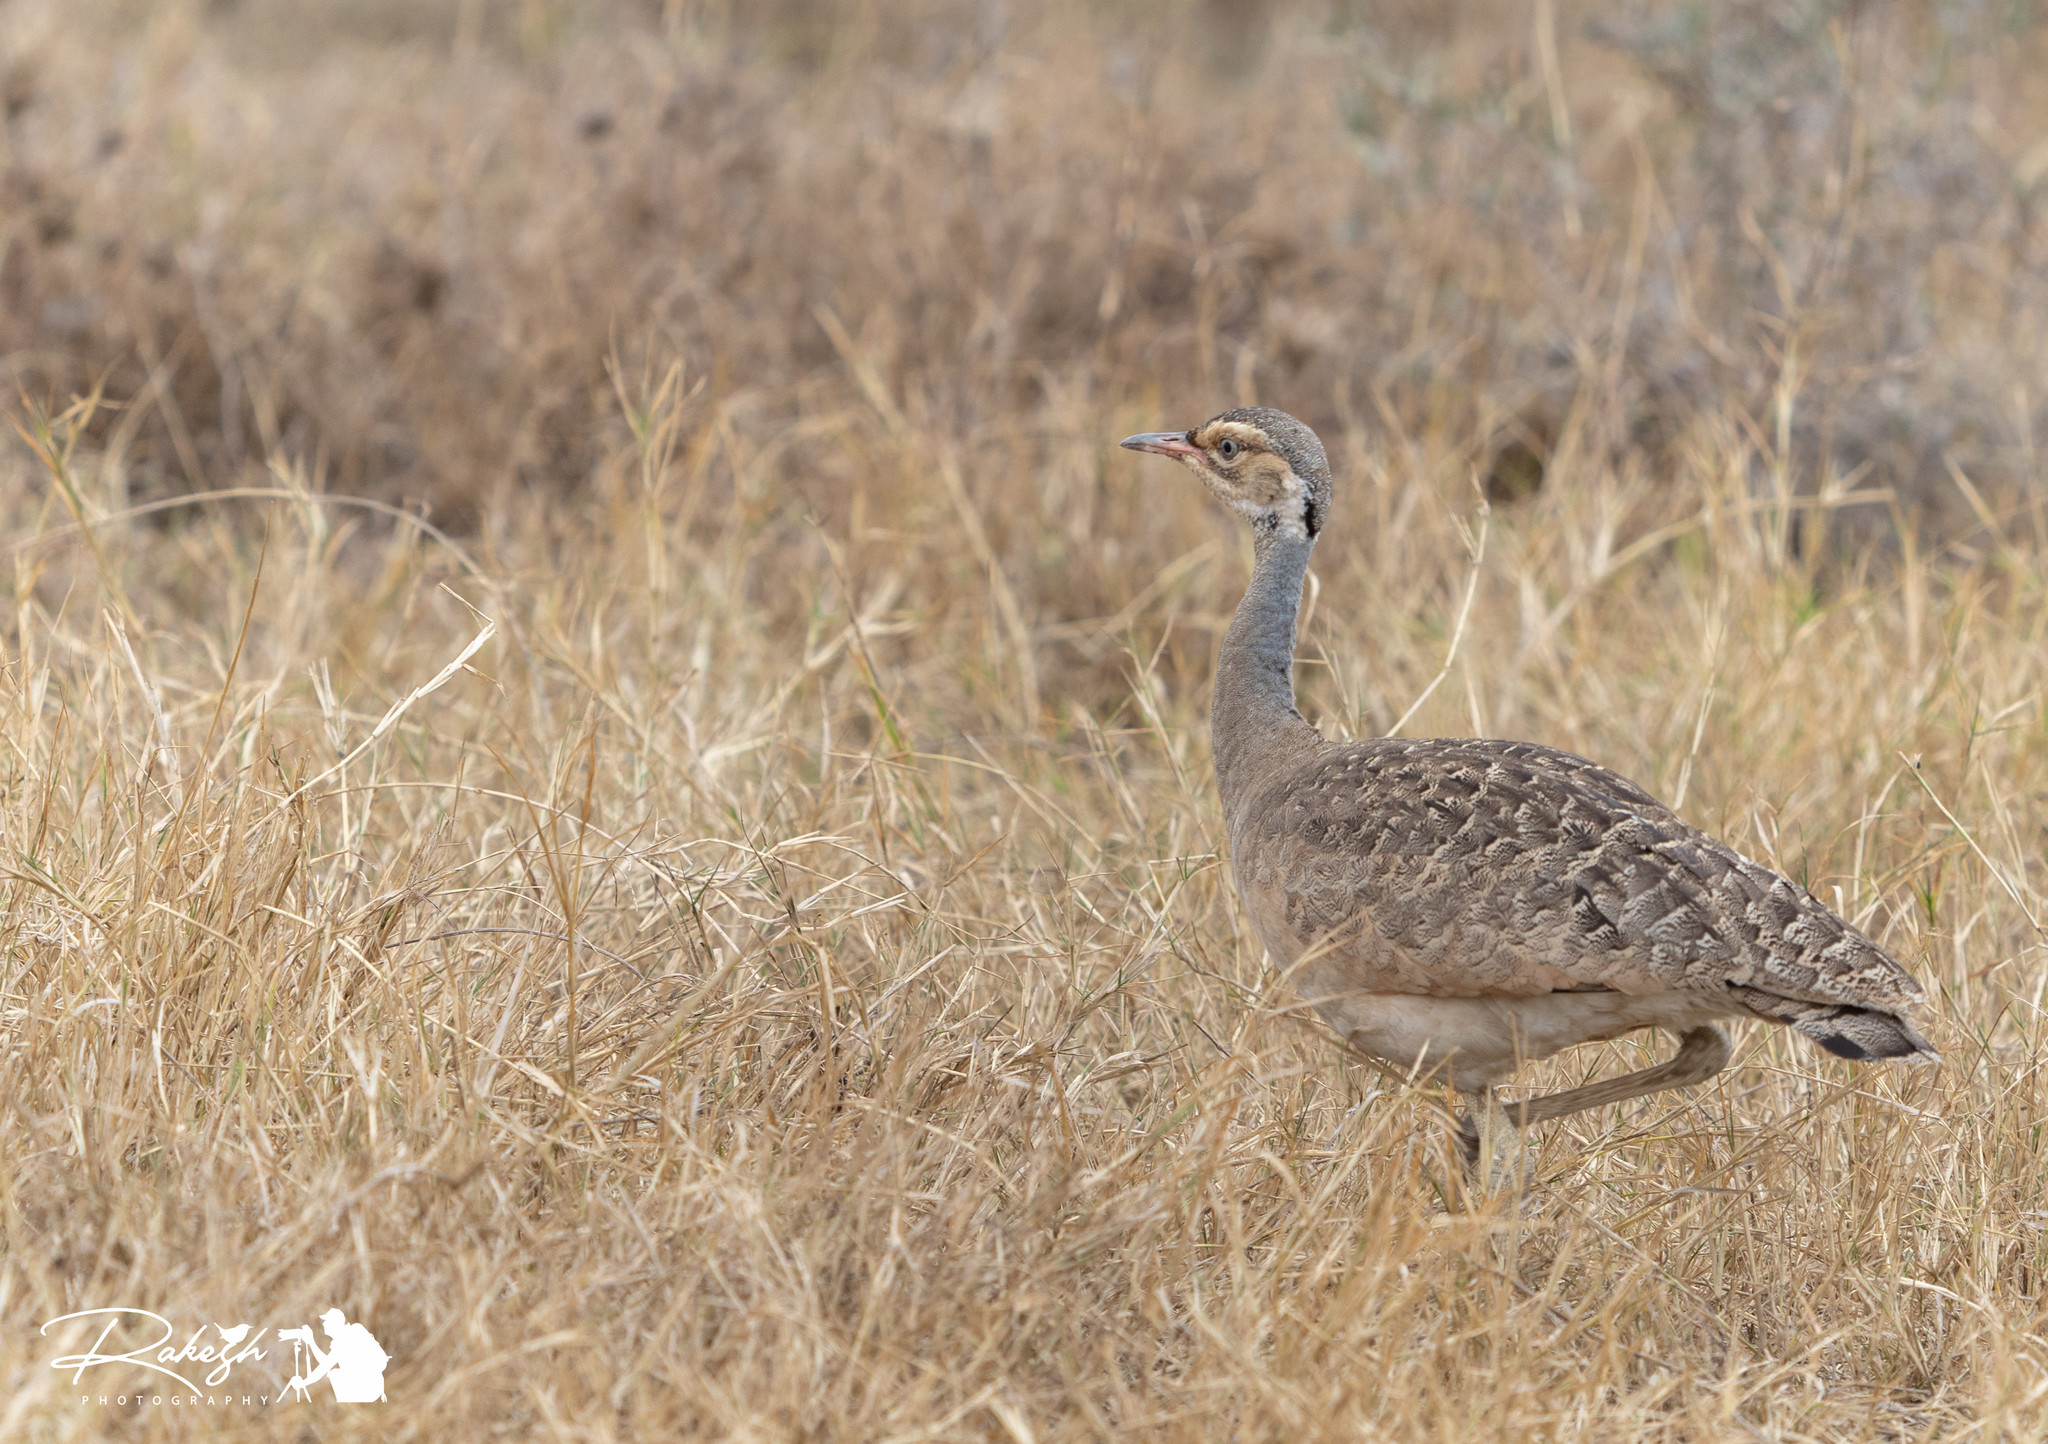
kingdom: Animalia
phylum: Chordata
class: Aves
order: Otidiformes
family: Otididae
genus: Eupodotis
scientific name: Eupodotis senegalensis
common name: White-bellied bustard
